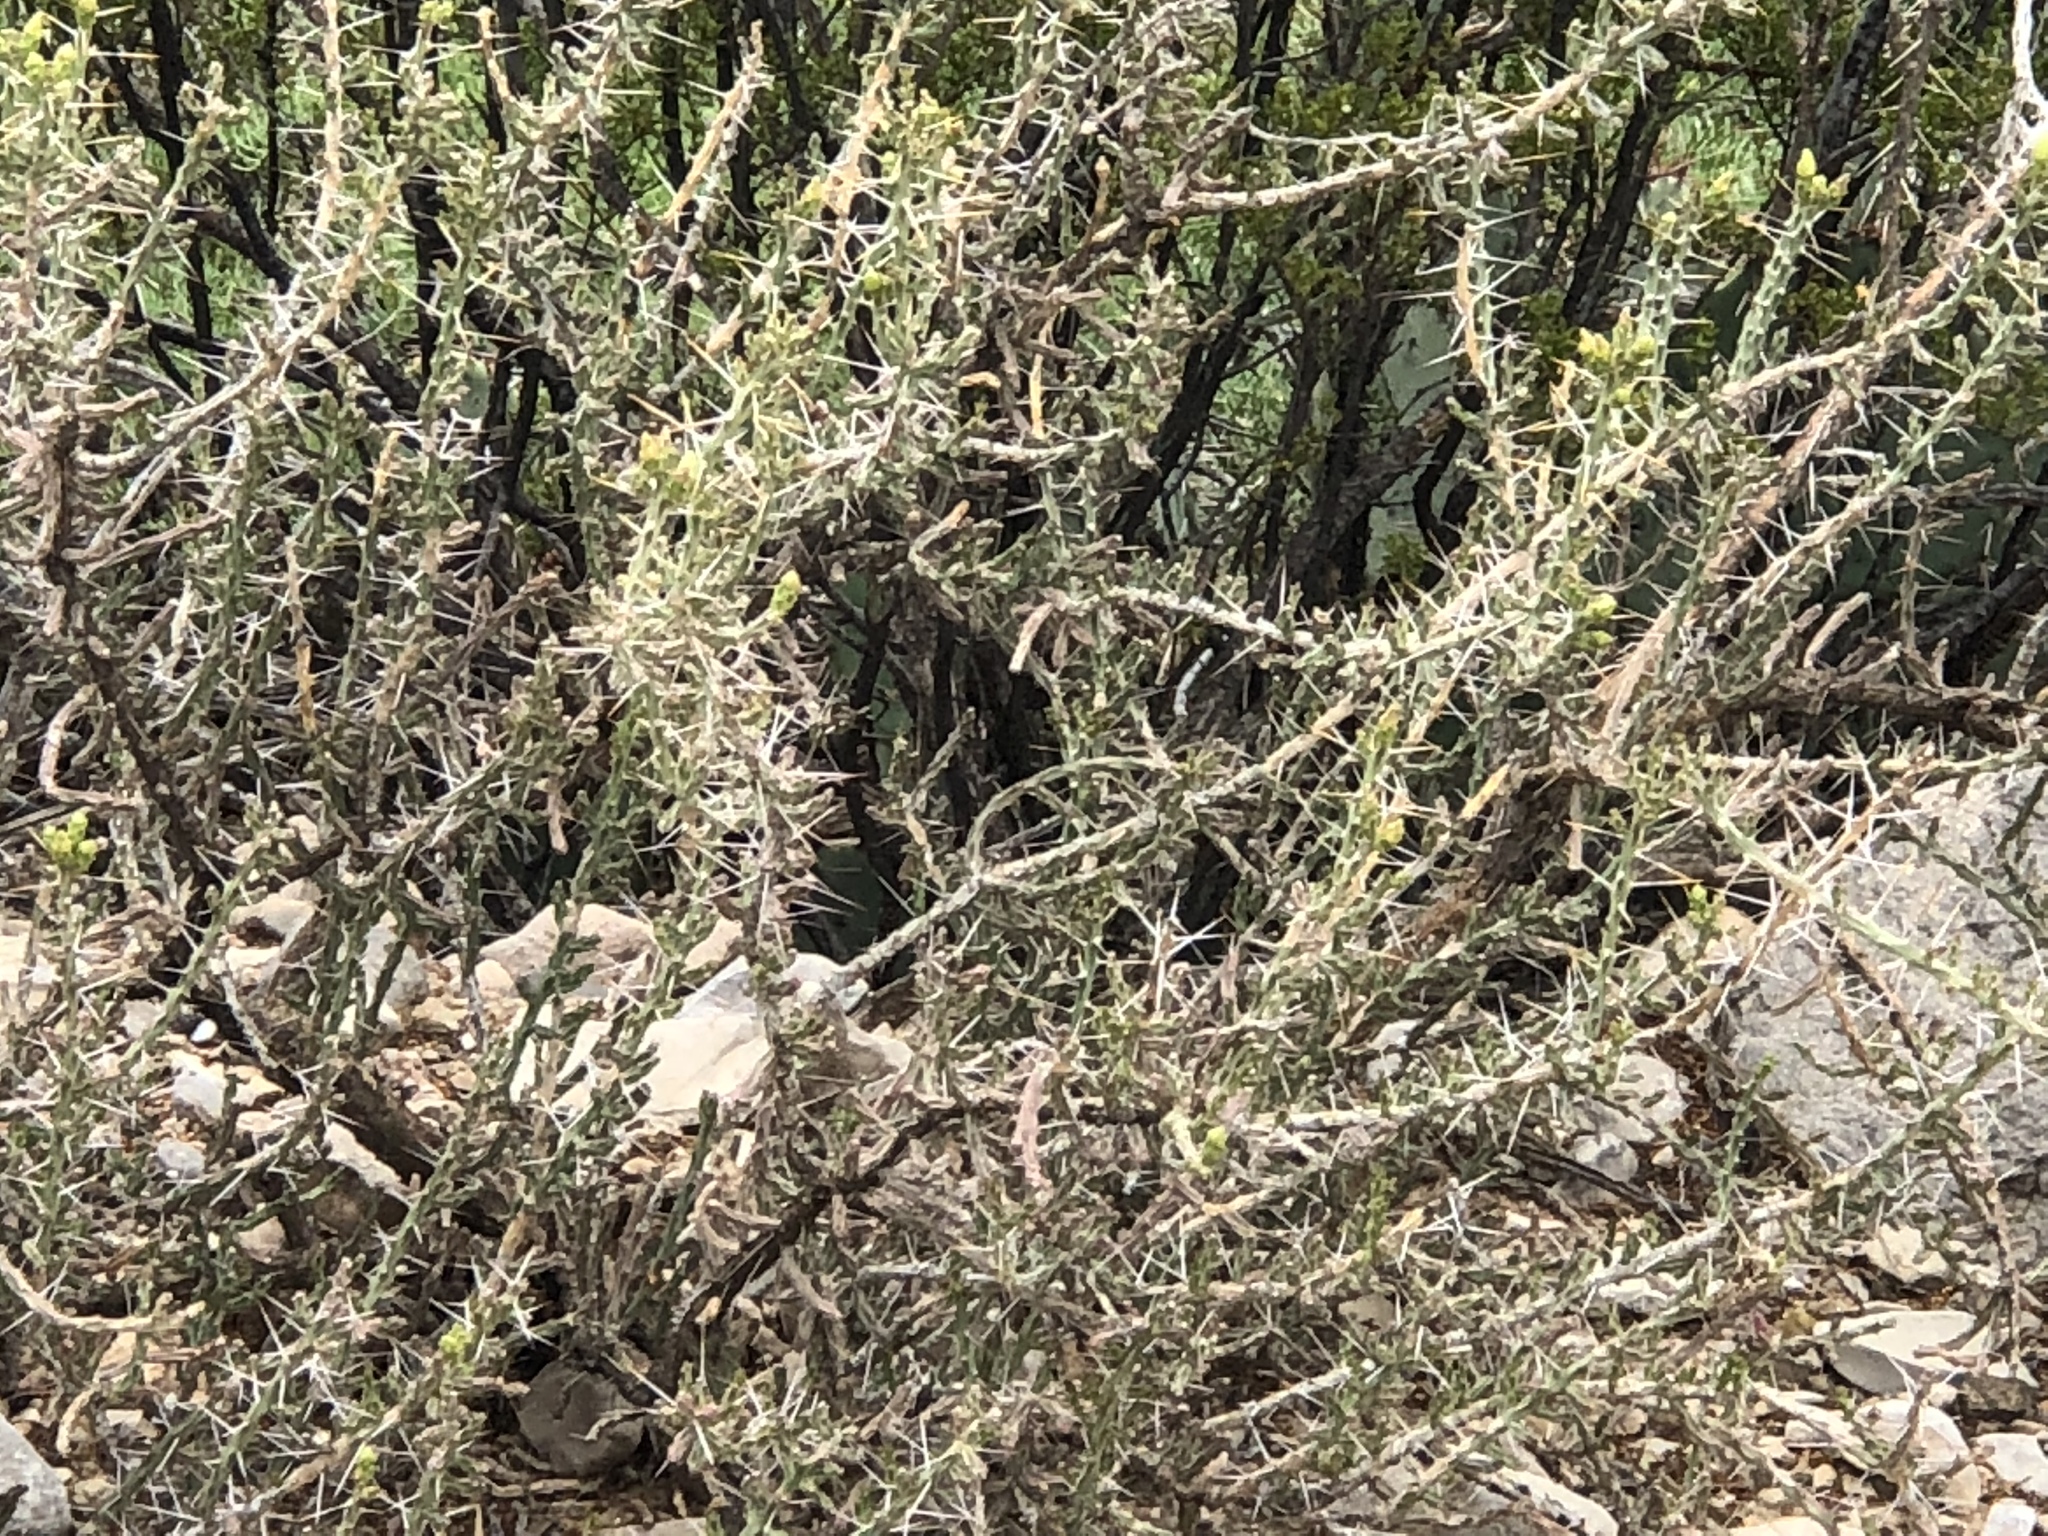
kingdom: Plantae
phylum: Tracheophyta
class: Magnoliopsida
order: Caryophyllales
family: Cactaceae
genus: Cylindropuntia
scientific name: Cylindropuntia leptocaulis
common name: Christmas cactus
